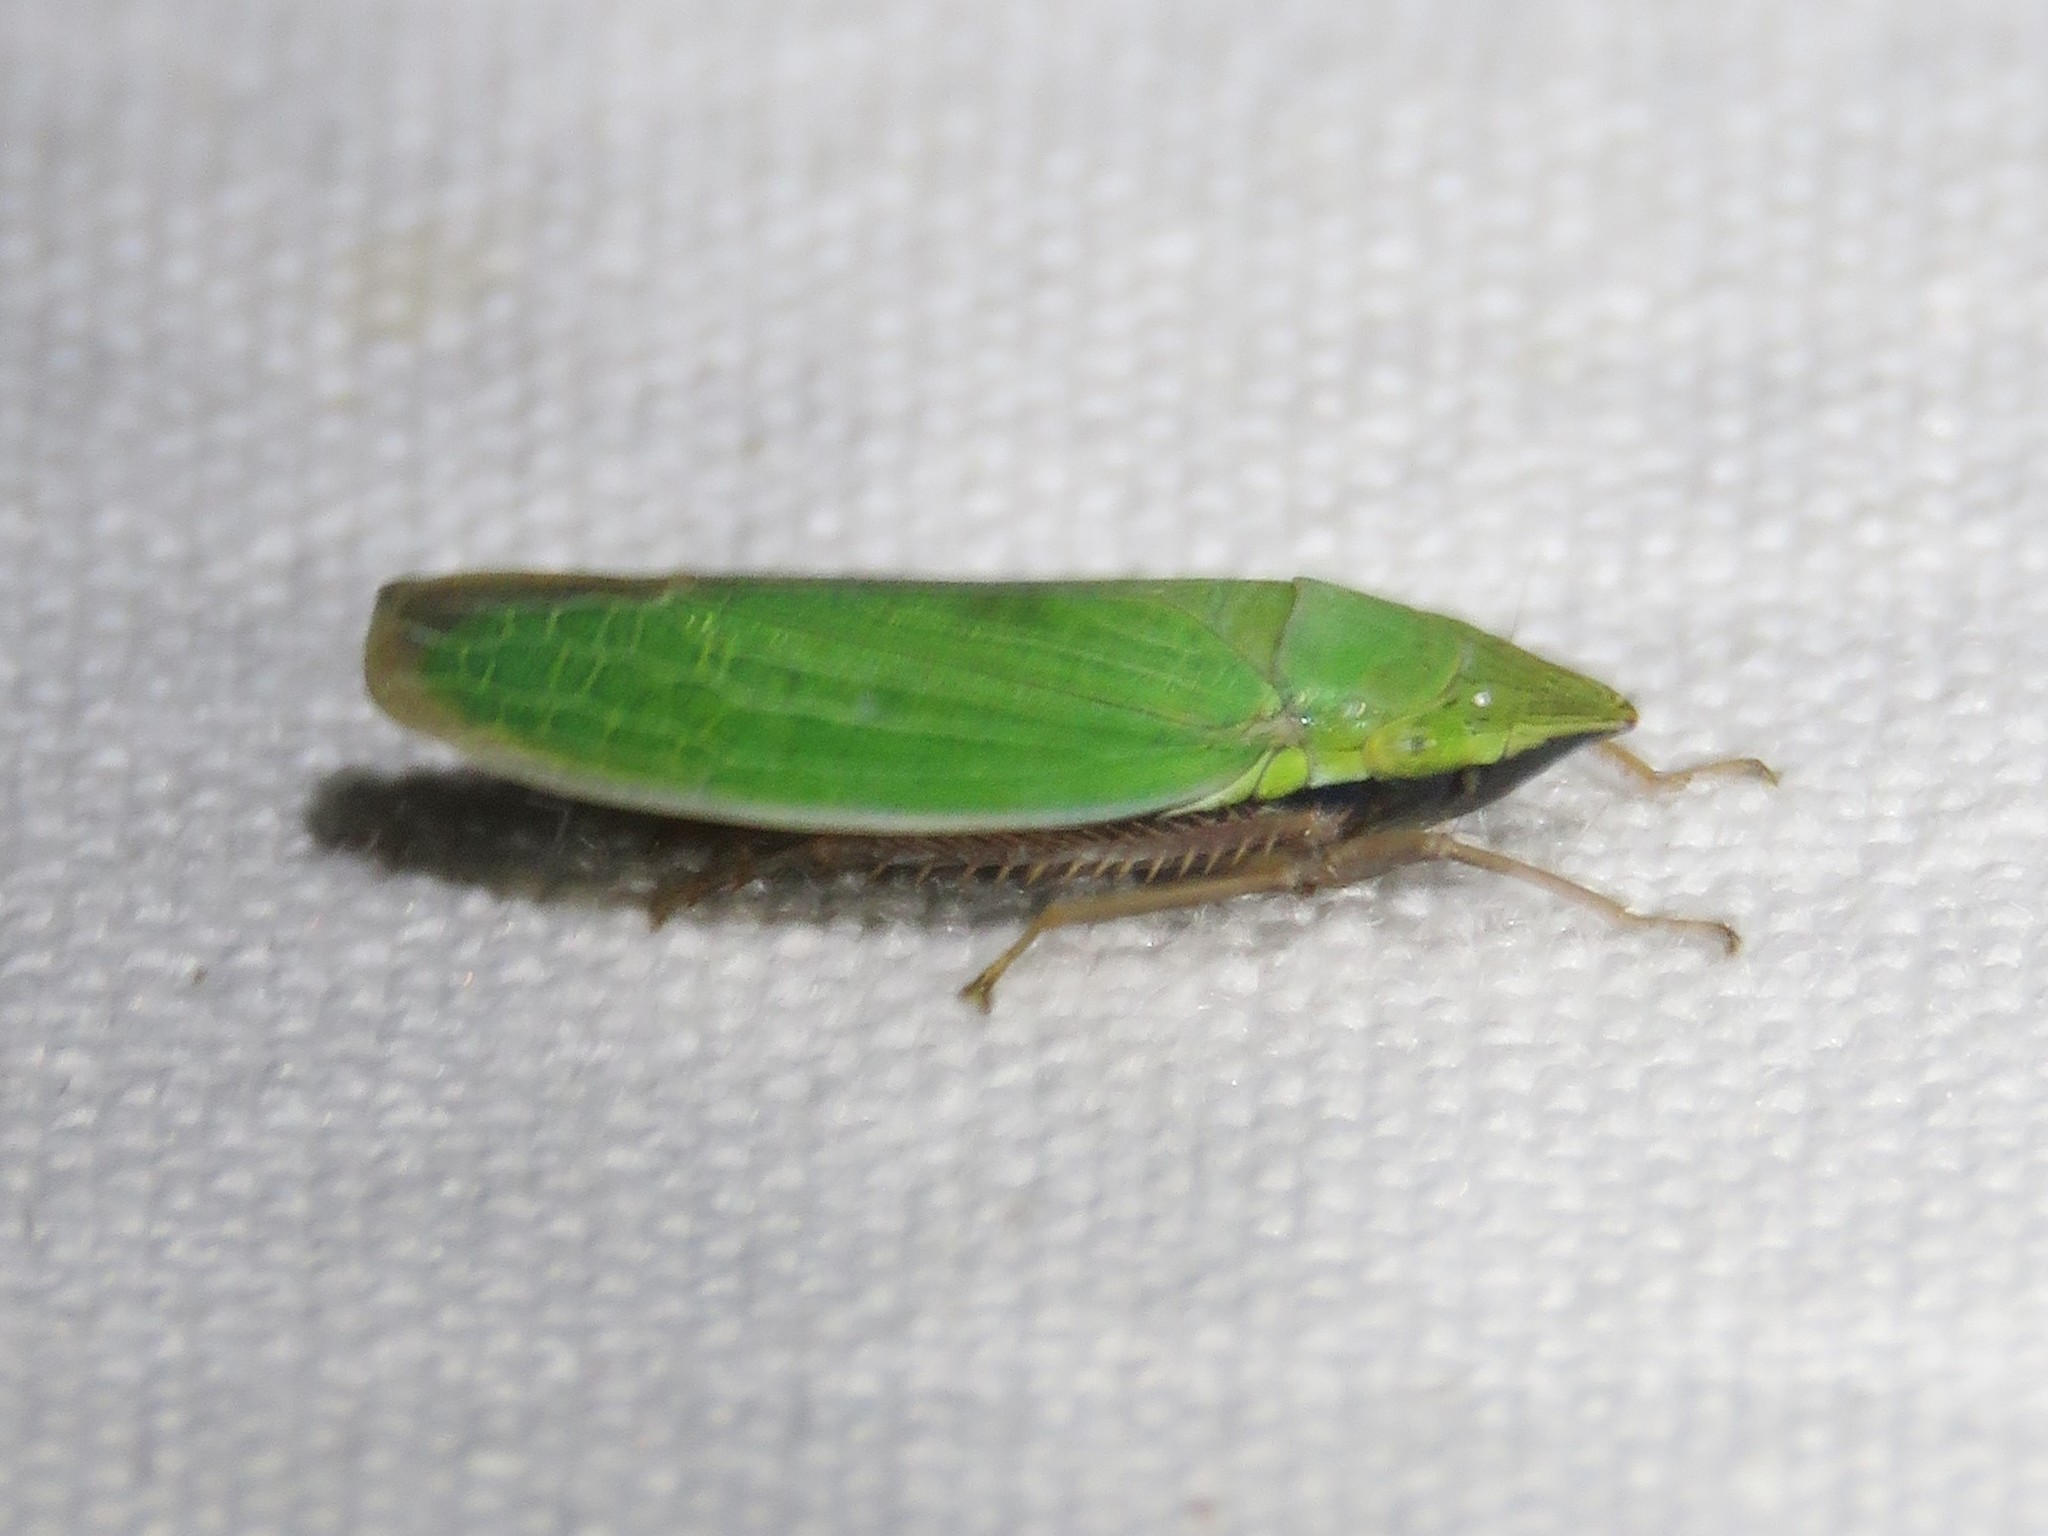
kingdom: Animalia
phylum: Arthropoda
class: Insecta
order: Hemiptera
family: Cicadellidae
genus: Draeculacephala
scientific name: Draeculacephala antica
